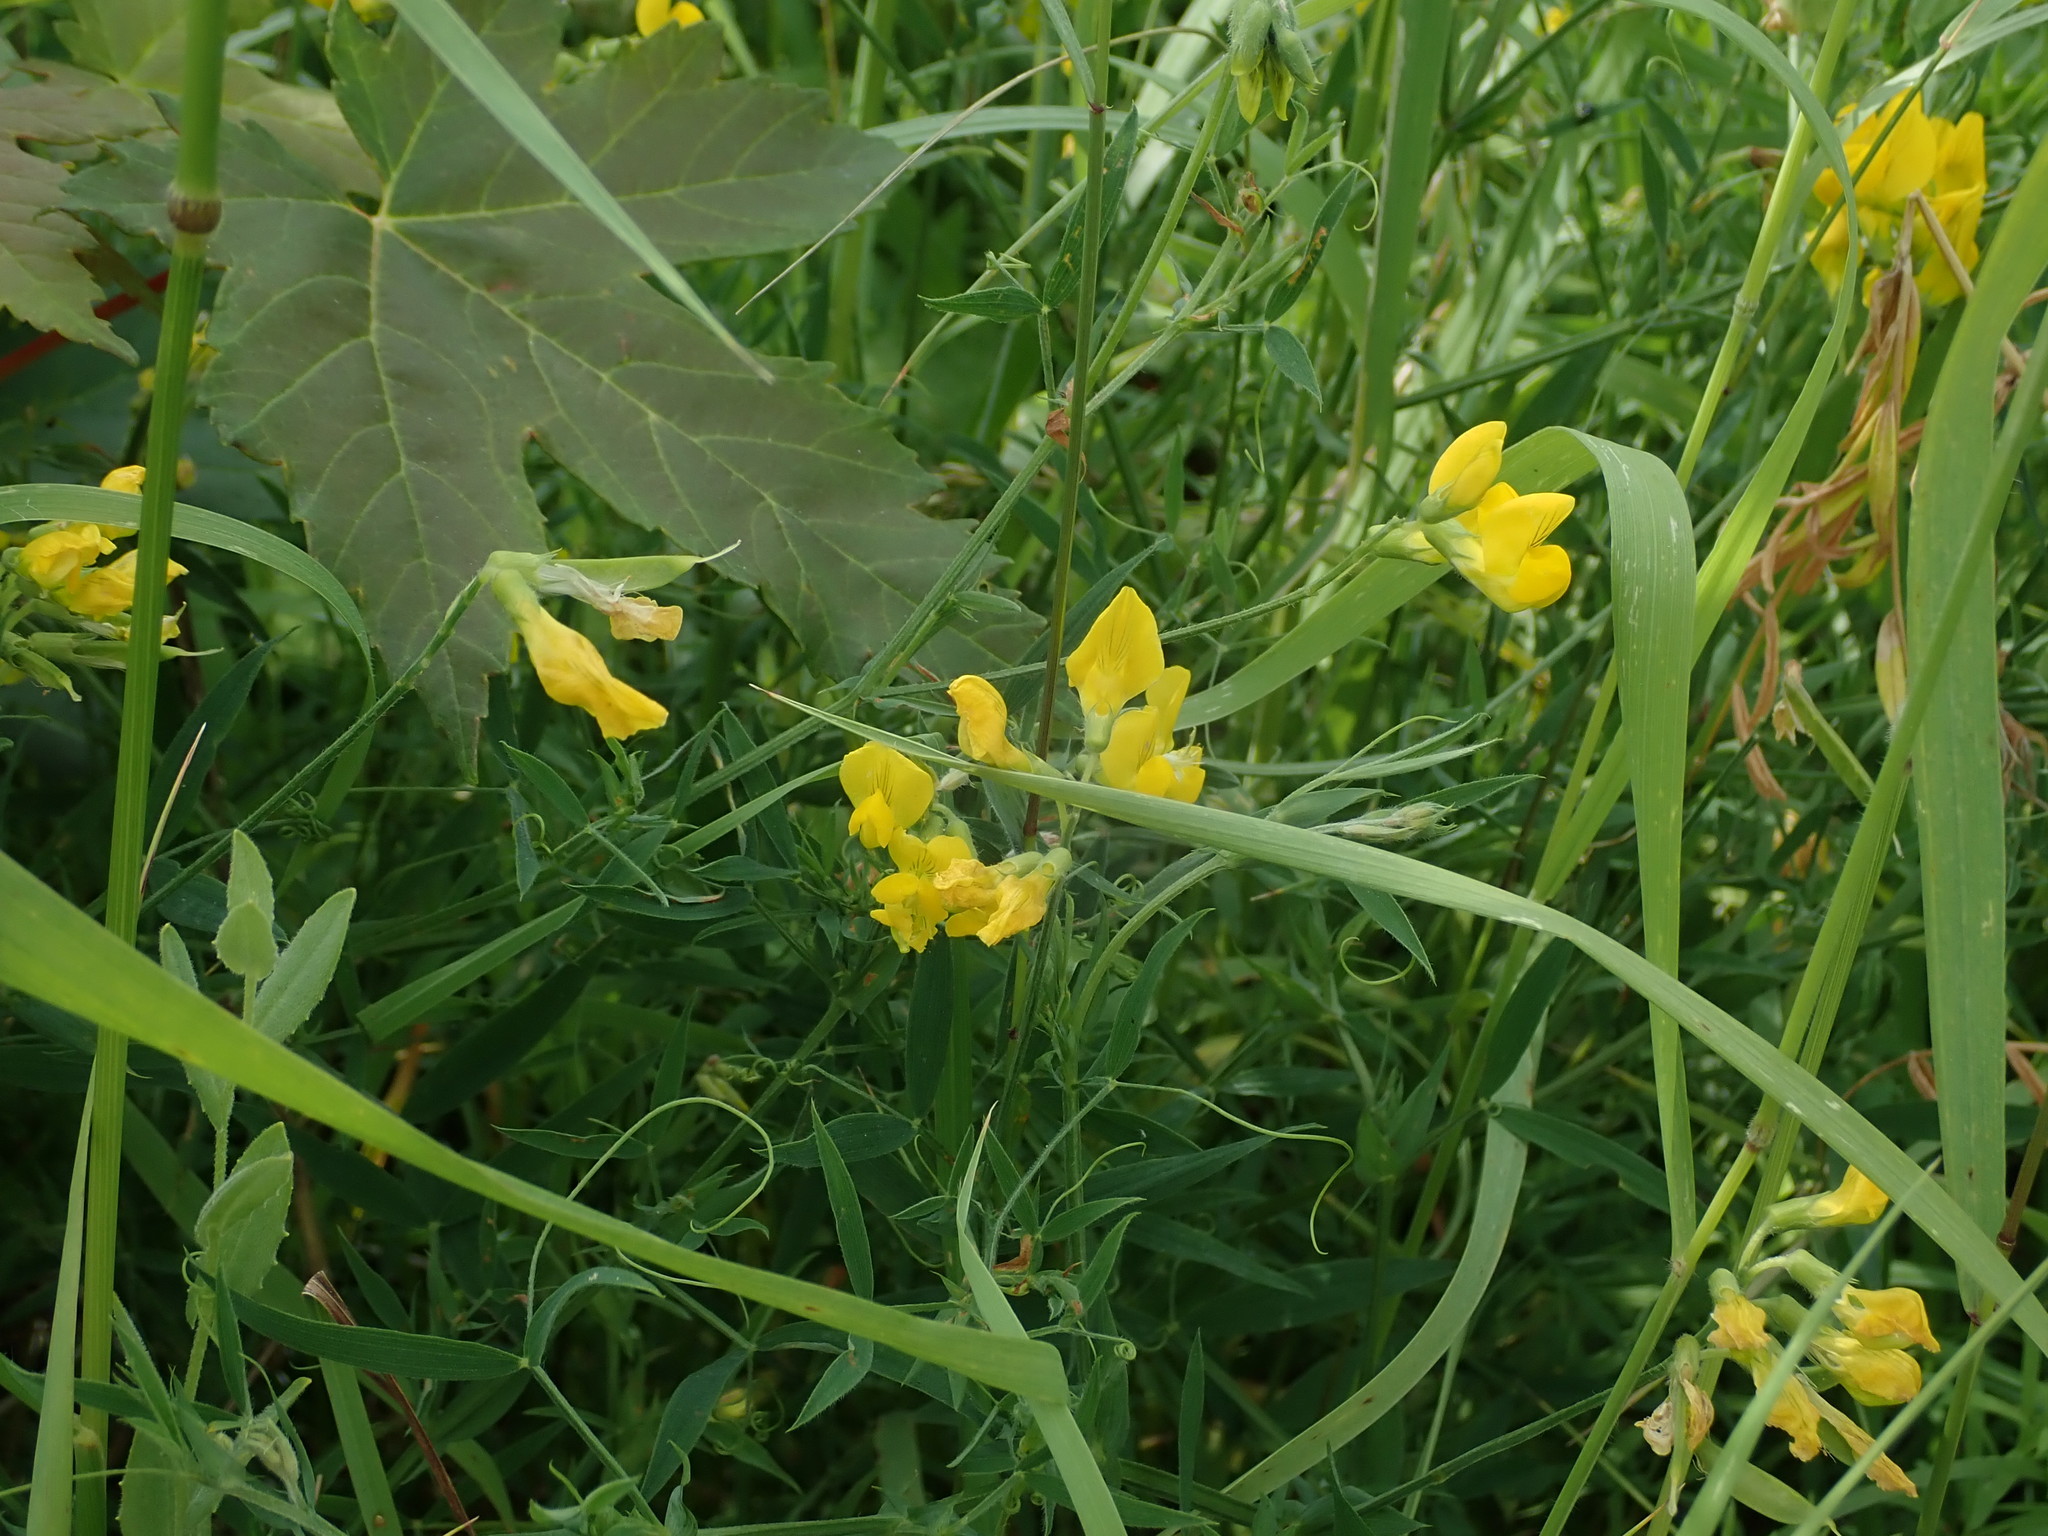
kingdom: Plantae
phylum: Tracheophyta
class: Magnoliopsida
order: Fabales
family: Fabaceae
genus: Lathyrus
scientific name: Lathyrus pratensis
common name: Meadow vetchling
